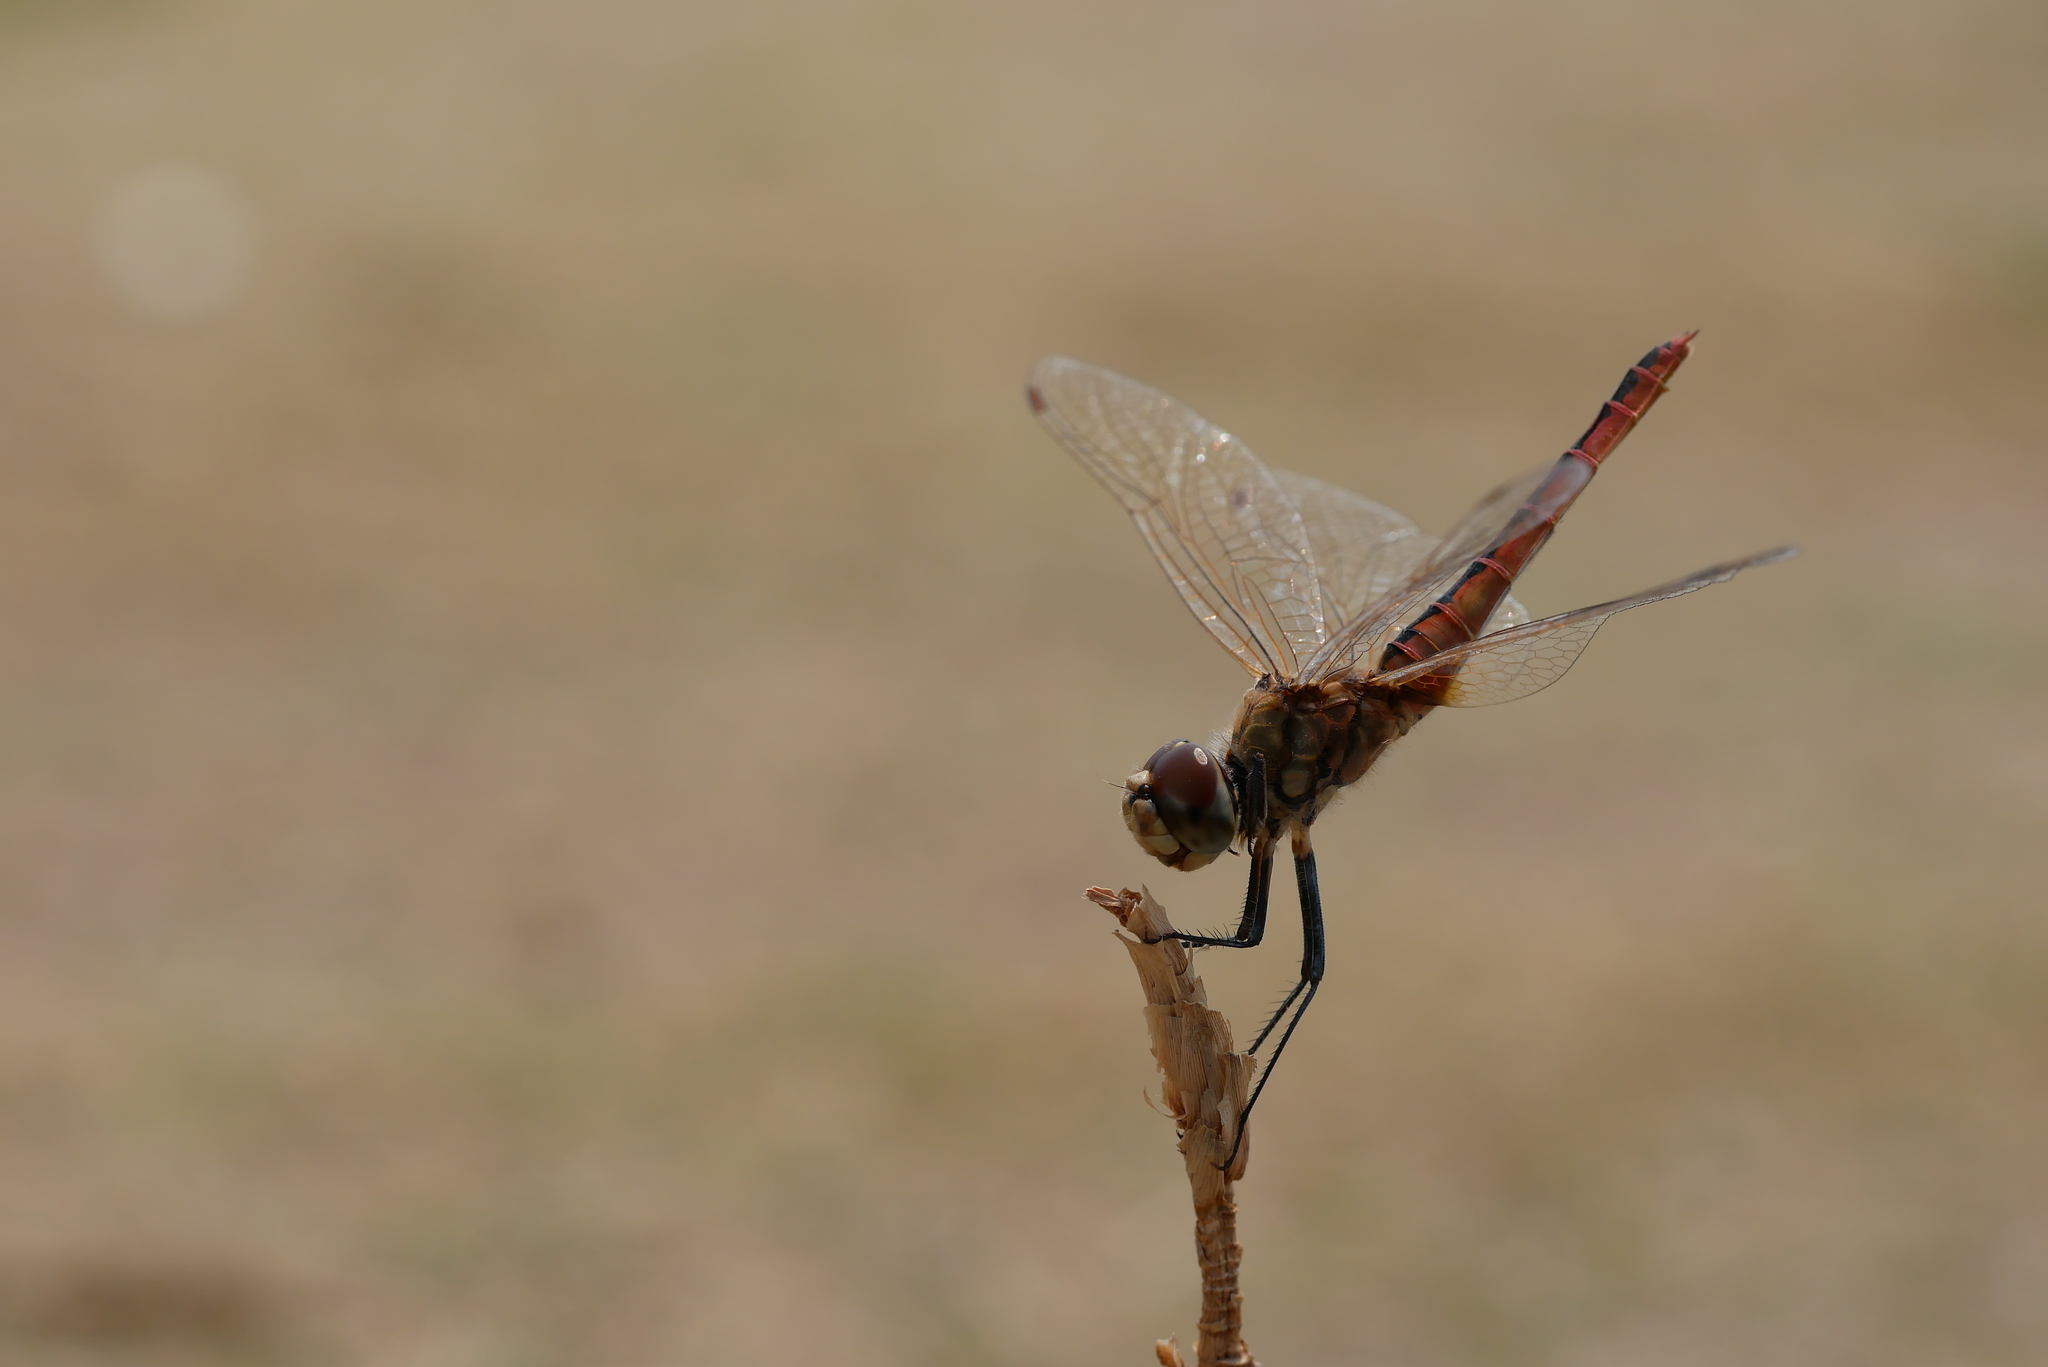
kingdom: Animalia
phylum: Arthropoda
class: Insecta
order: Odonata
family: Libellulidae
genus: Macrodiplax
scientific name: Macrodiplax cora
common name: Coastal glider
